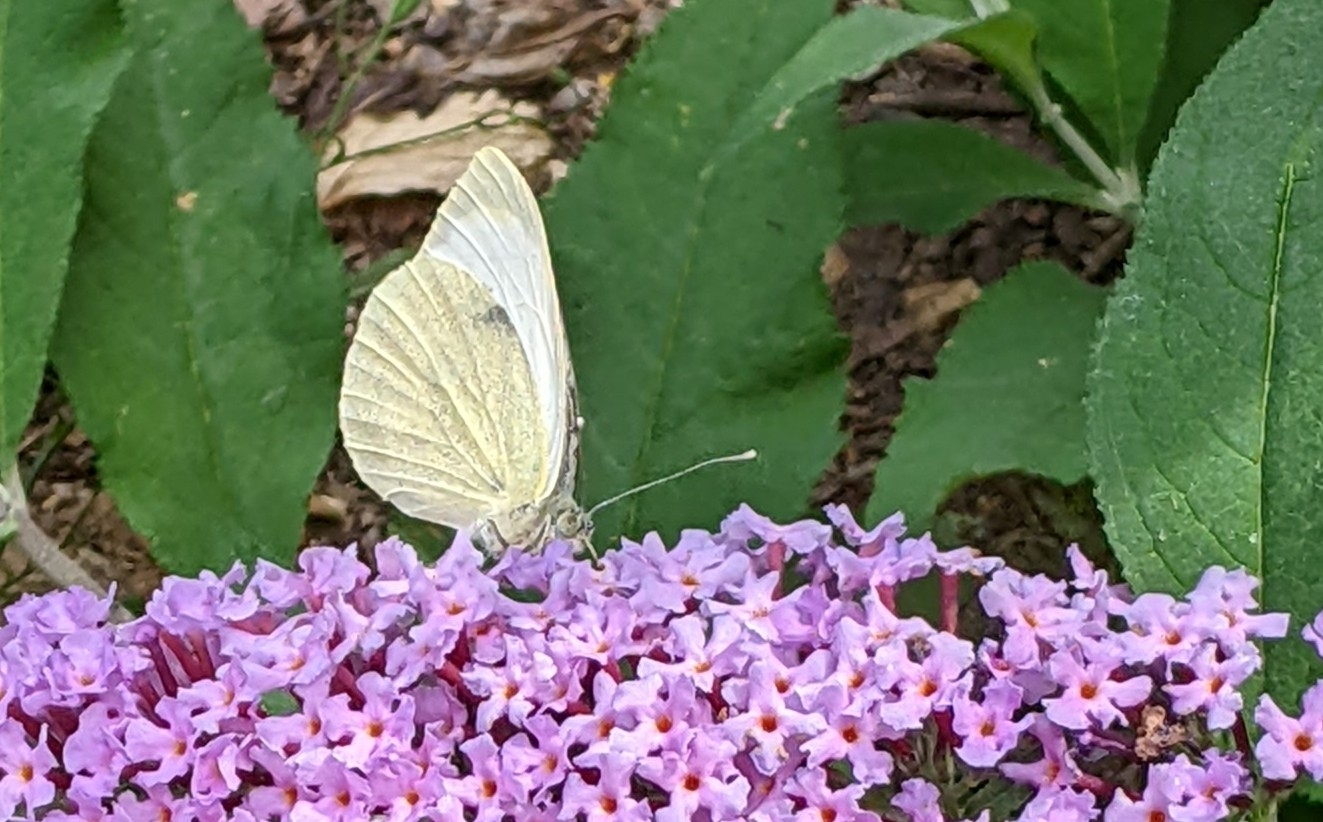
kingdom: Animalia
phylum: Arthropoda
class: Insecta
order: Lepidoptera
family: Pieridae
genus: Pieris
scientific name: Pieris brassicae
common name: Large white
